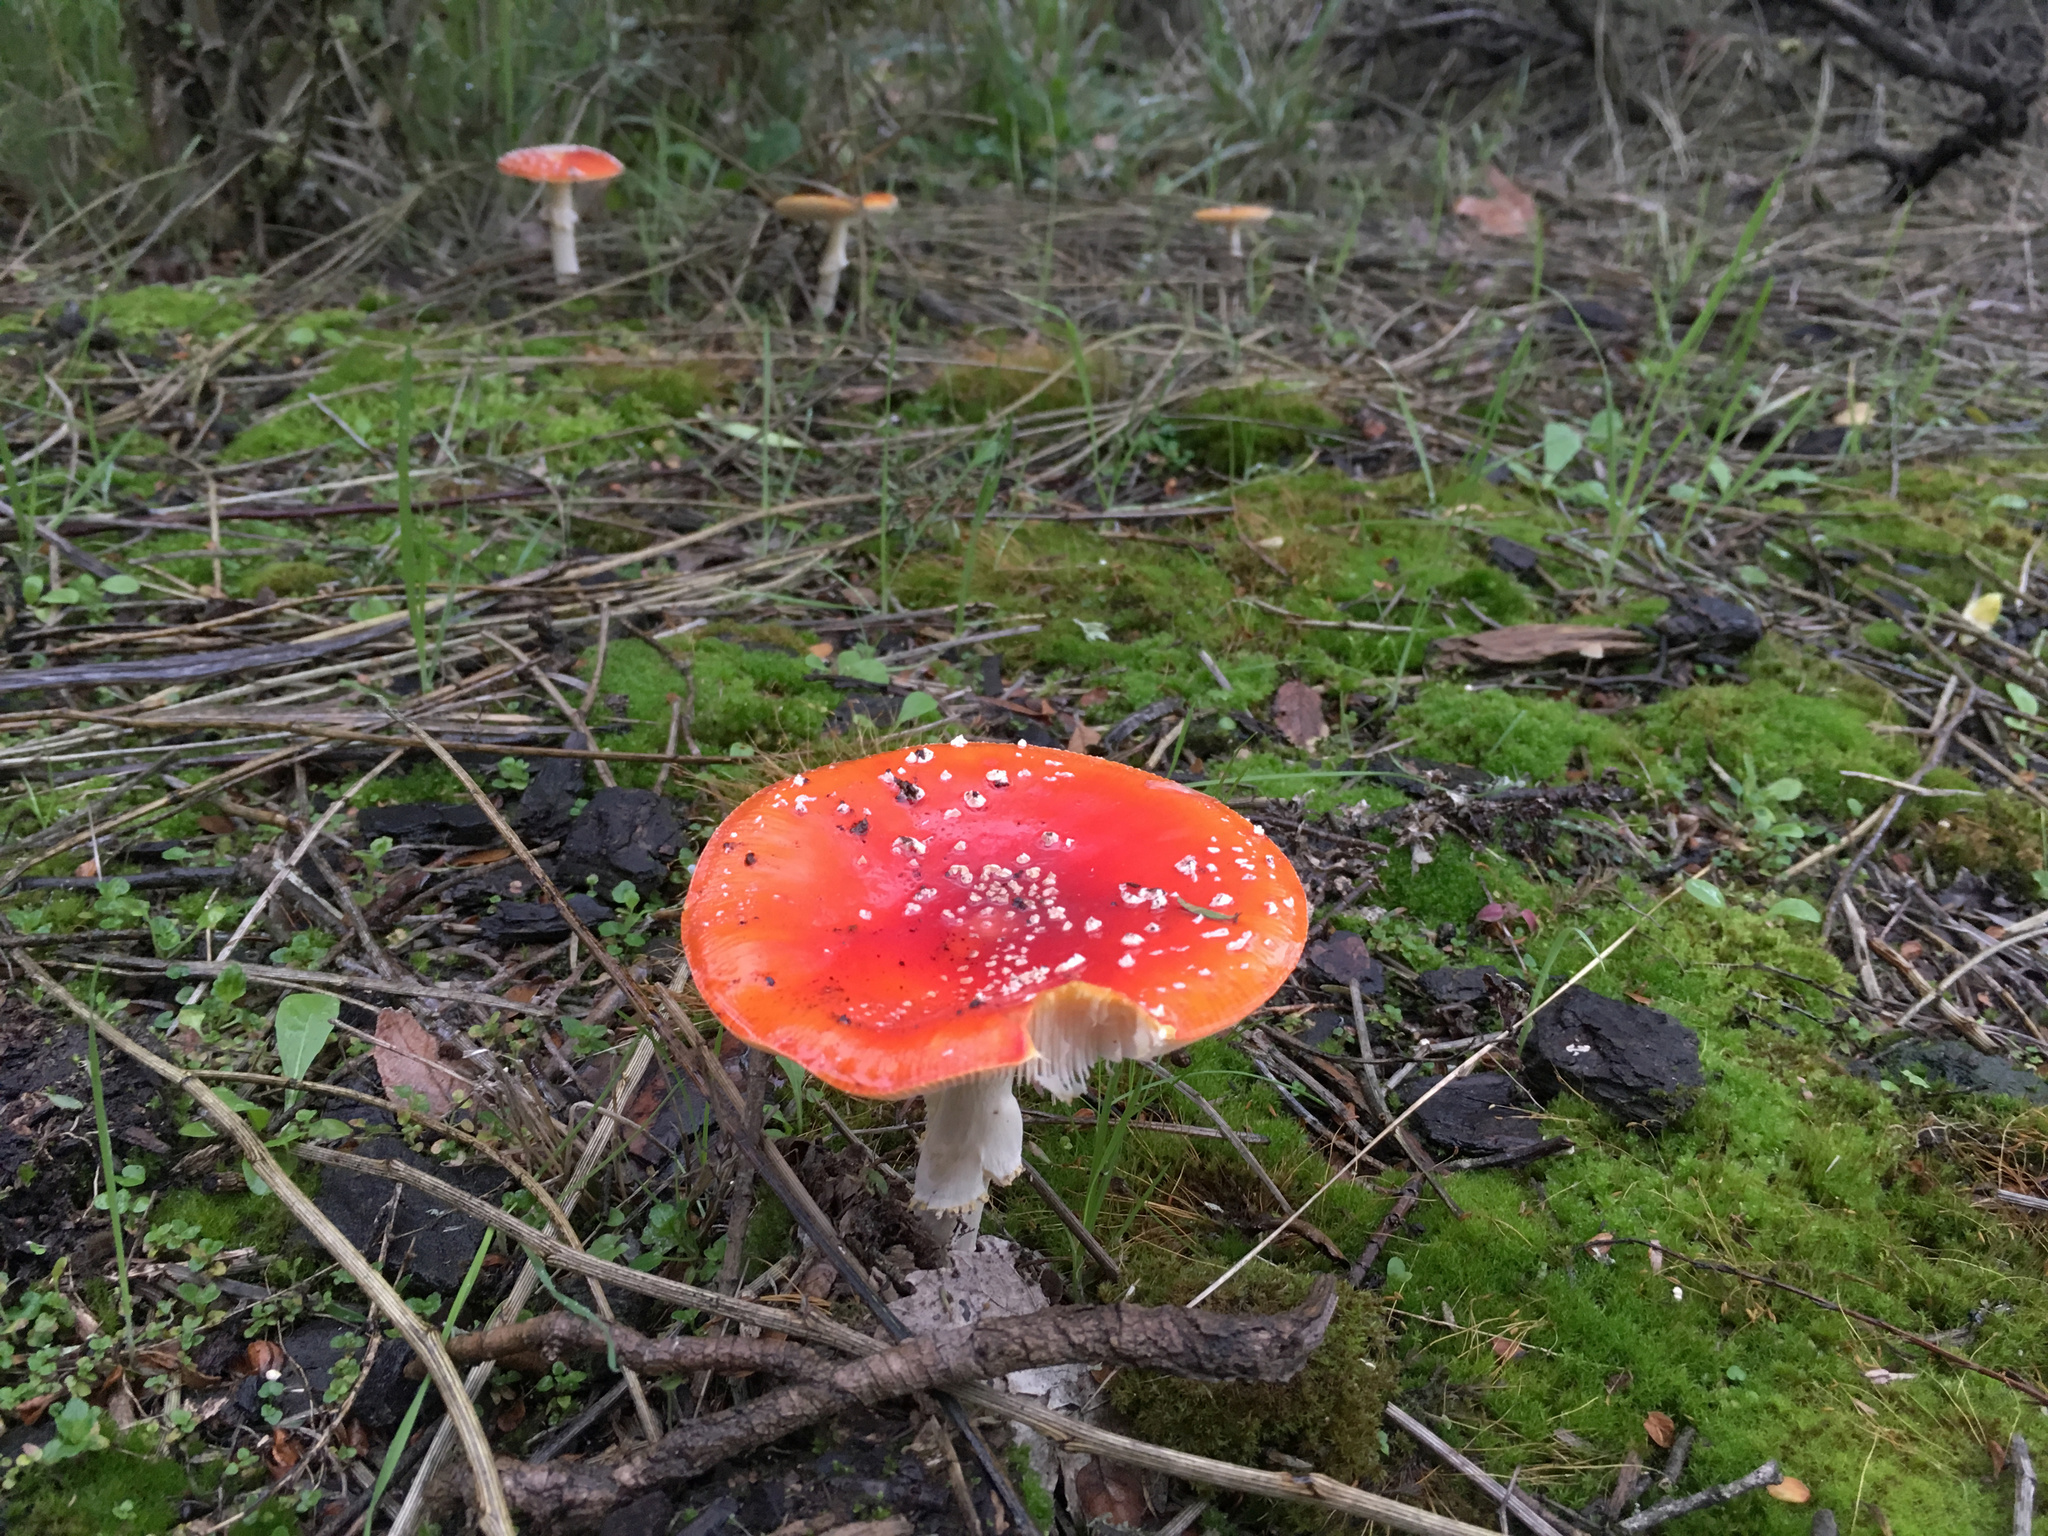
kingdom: Fungi
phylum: Basidiomycota
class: Agaricomycetes
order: Agaricales
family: Amanitaceae
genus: Amanita
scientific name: Amanita muscaria
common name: Fly agaric
